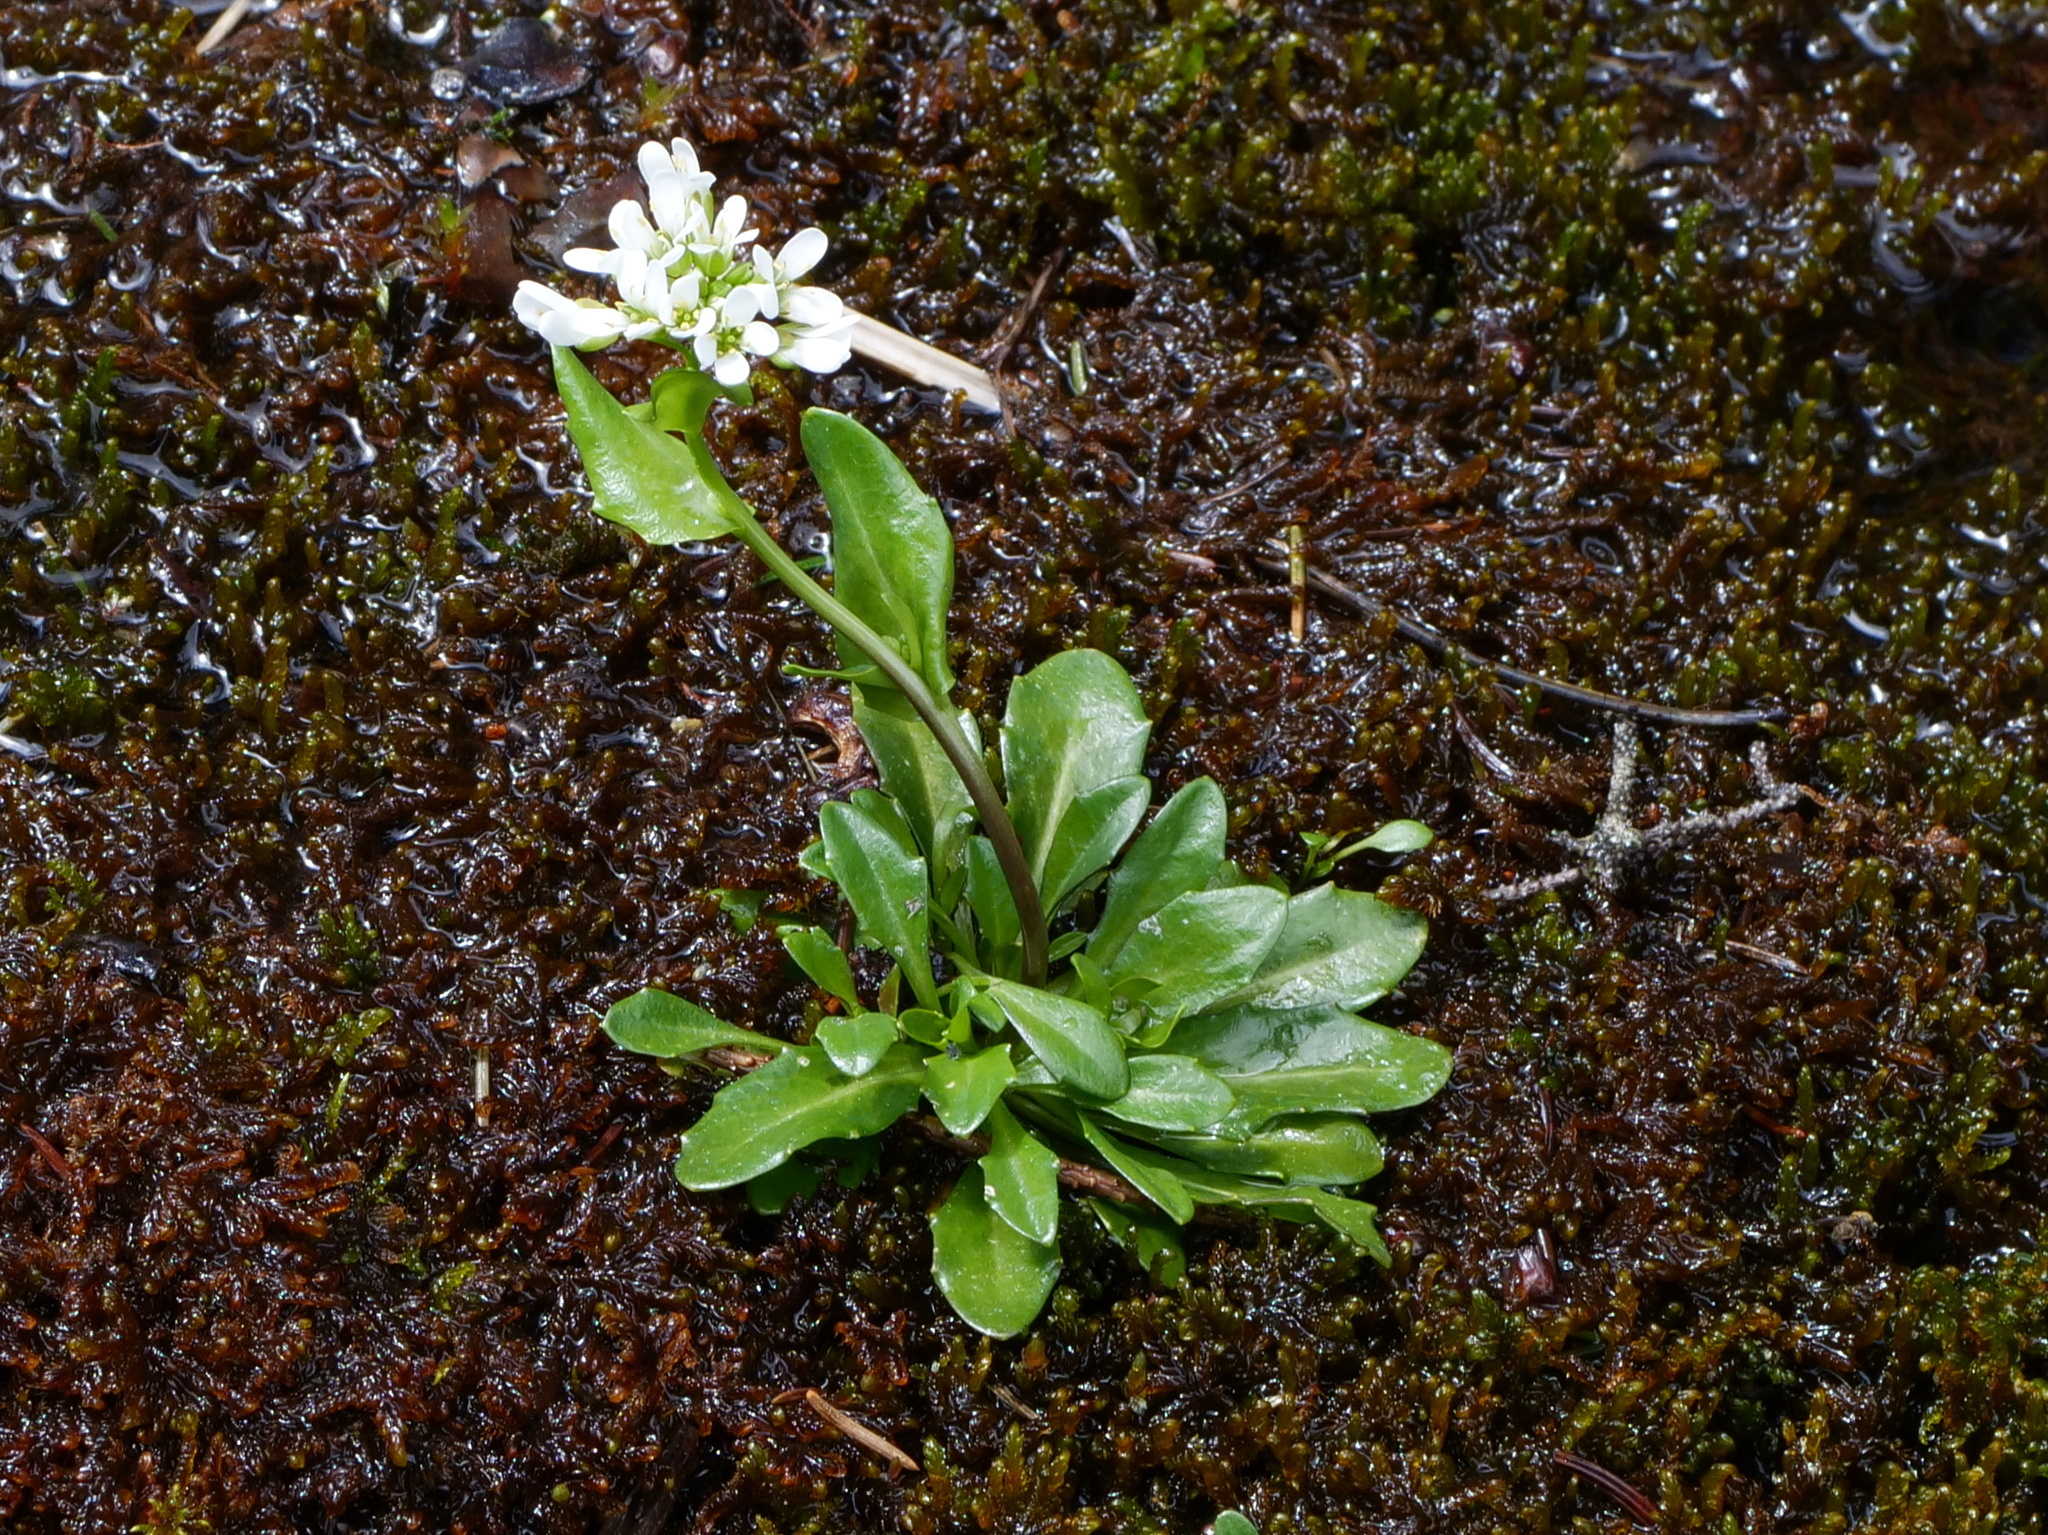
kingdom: Plantae
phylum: Tracheophyta
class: Magnoliopsida
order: Brassicales
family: Brassicaceae
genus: Arabis
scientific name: Arabis soyeri
